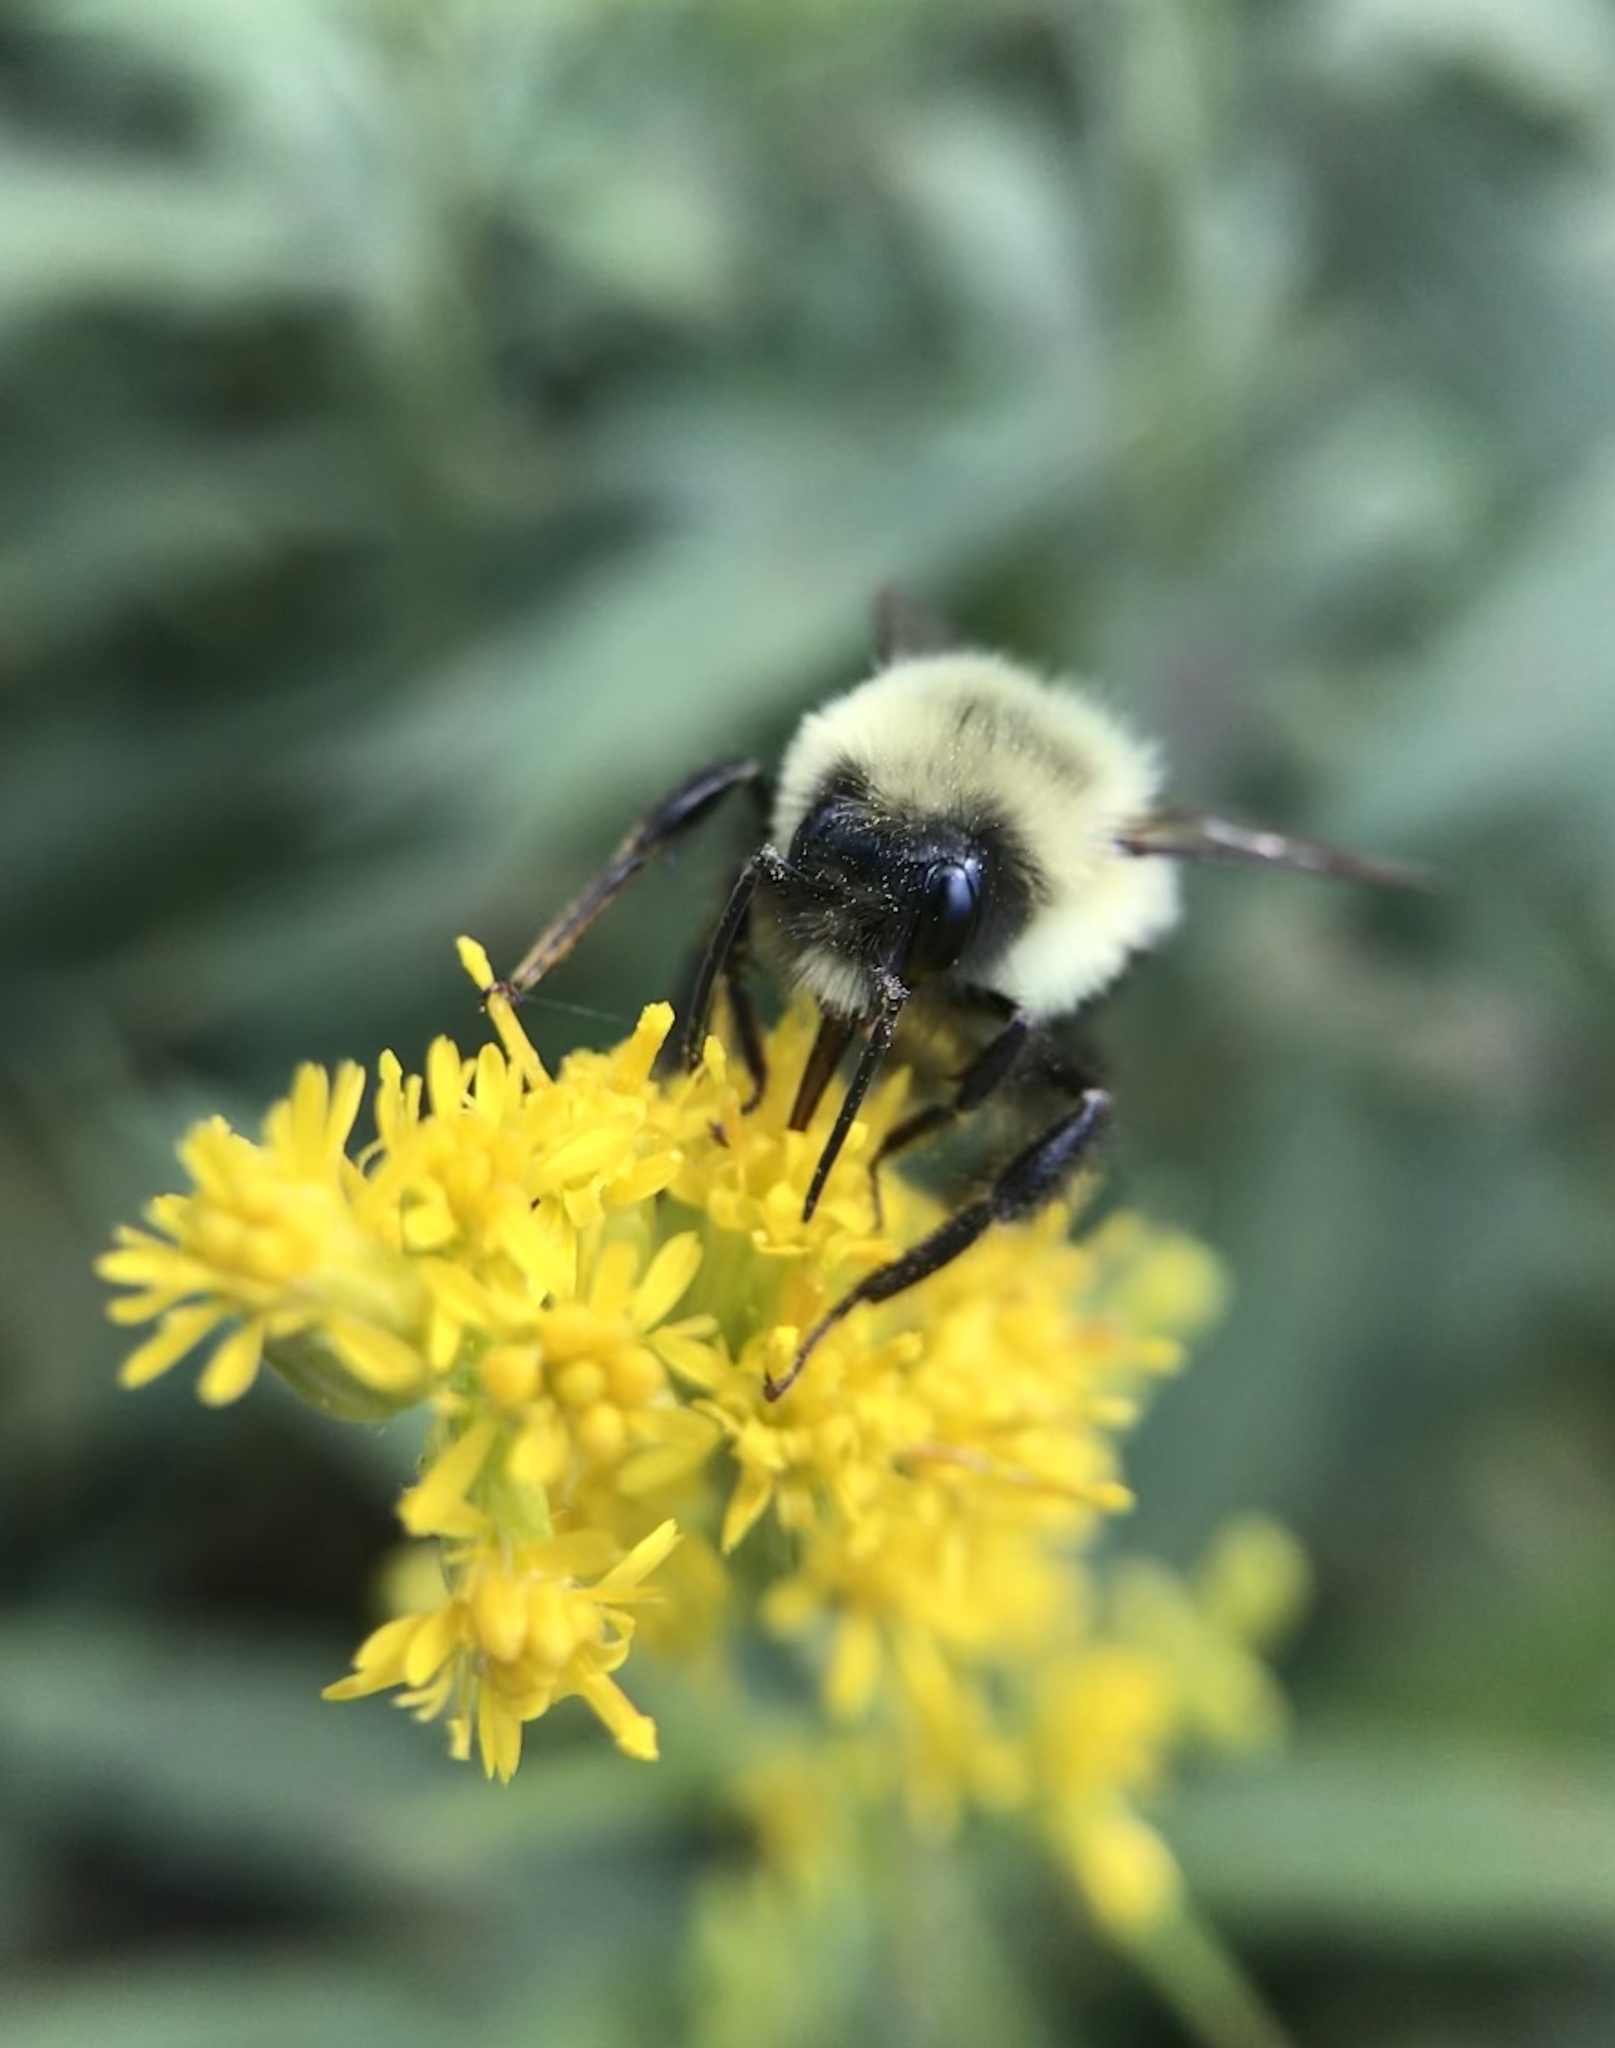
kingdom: Animalia
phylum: Arthropoda
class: Insecta
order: Hymenoptera
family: Apidae
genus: Bombus
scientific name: Bombus impatiens
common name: Common eastern bumble bee
